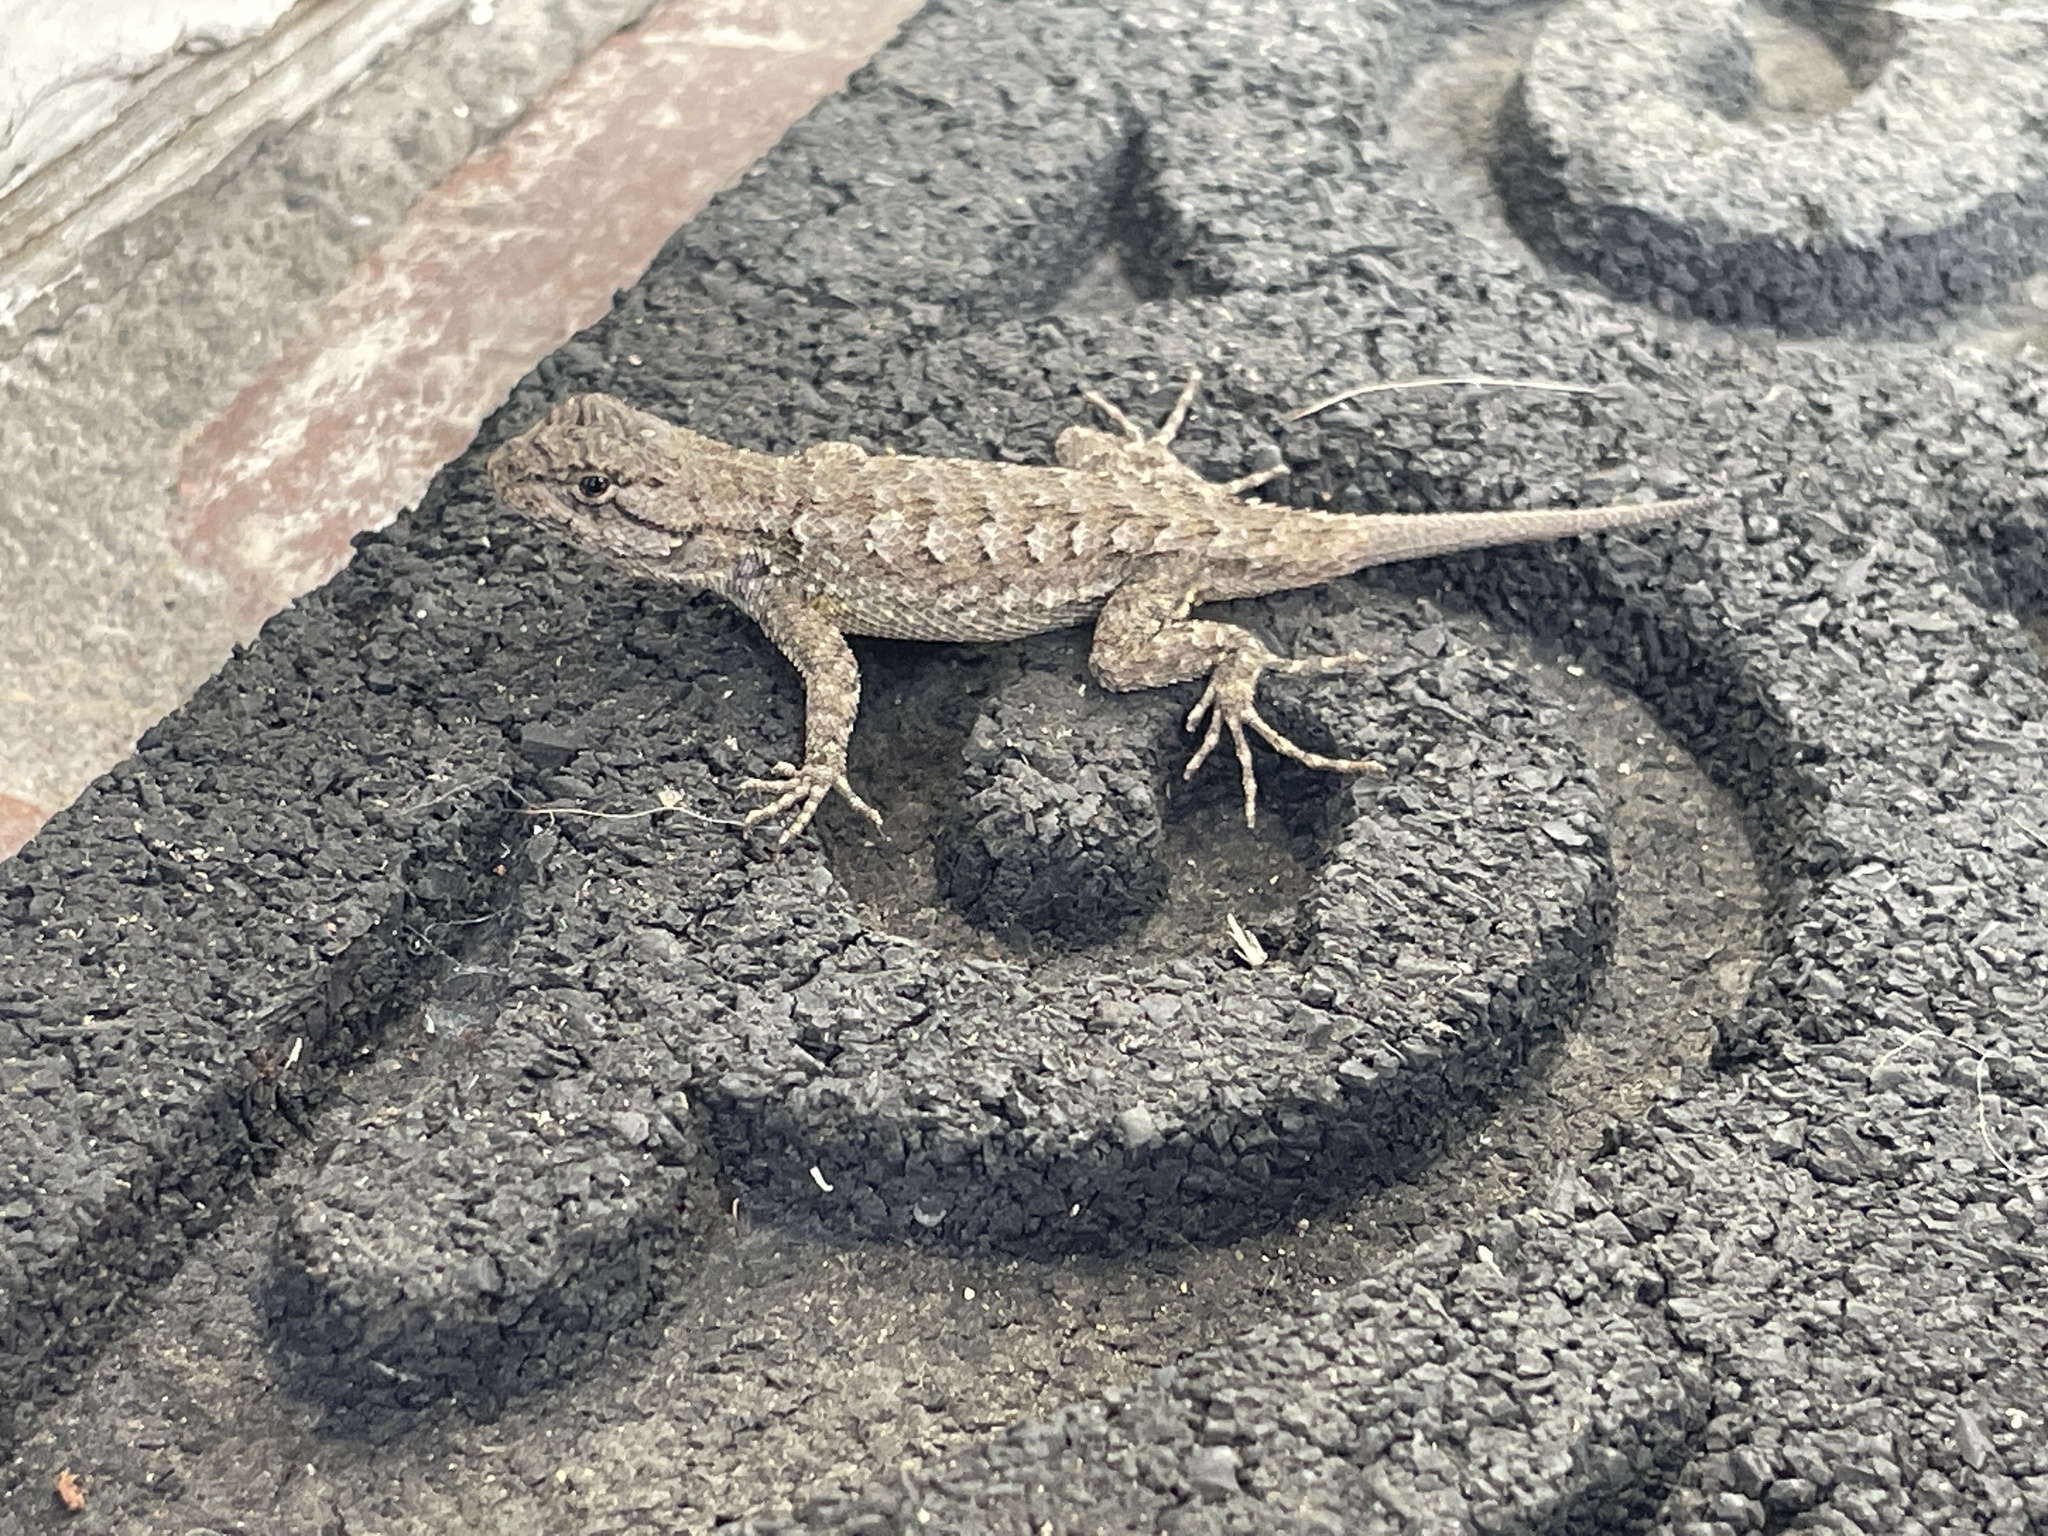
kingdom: Animalia
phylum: Chordata
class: Squamata
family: Phrynosomatidae
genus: Sceloporus
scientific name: Sceloporus occidentalis
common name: Western fence lizard
